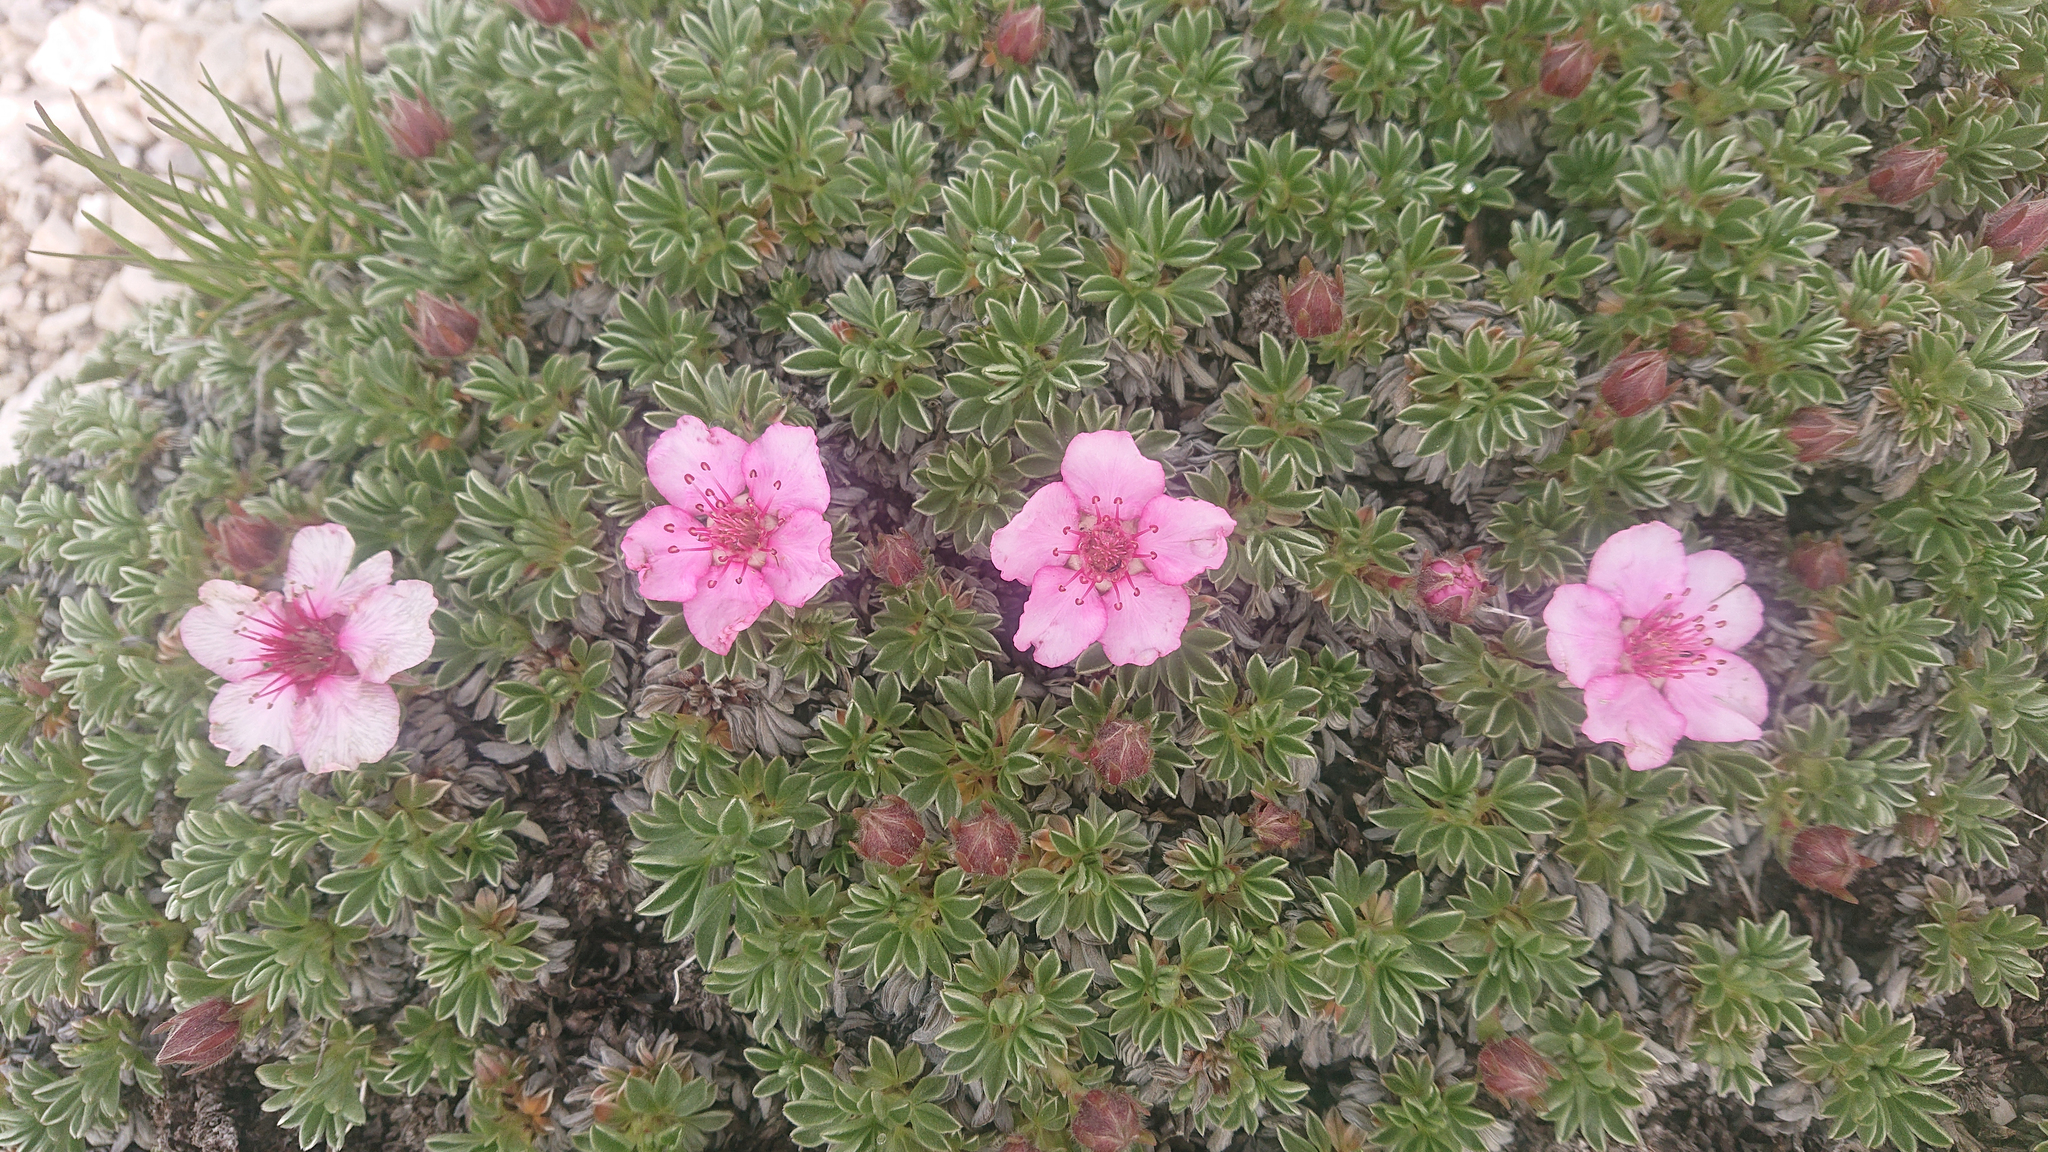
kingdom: Plantae
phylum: Tracheophyta
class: Magnoliopsida
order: Rosales
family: Rosaceae
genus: Potentilla
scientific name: Potentilla nitida
